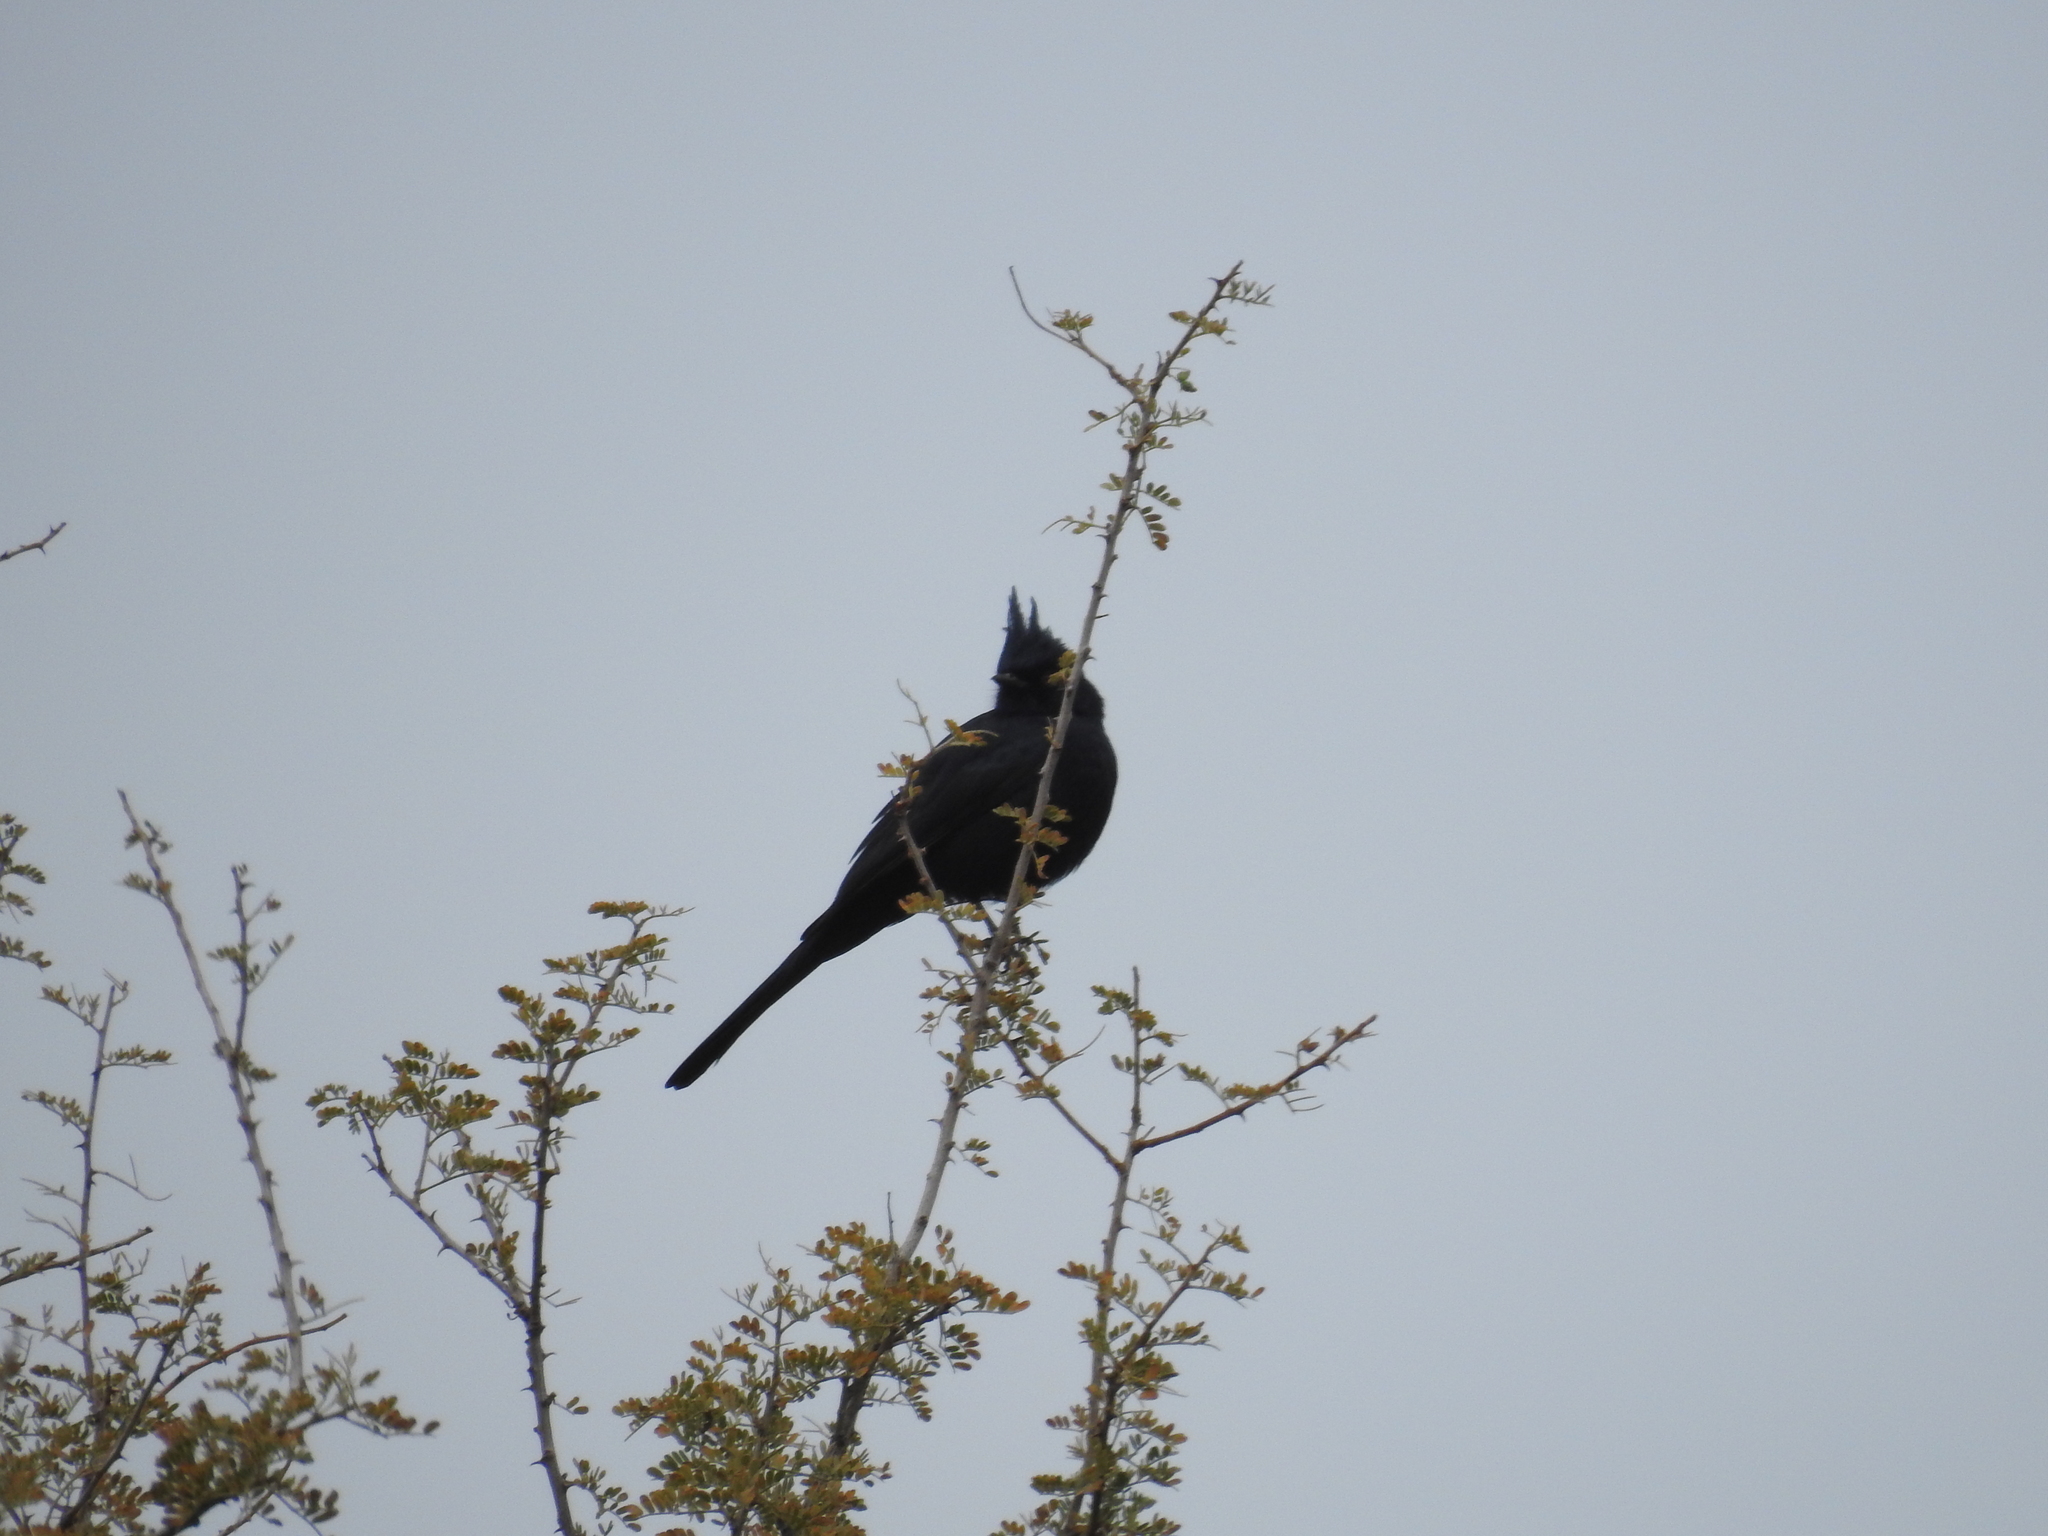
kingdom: Animalia
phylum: Chordata
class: Aves
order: Passeriformes
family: Ptilogonatidae
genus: Phainopepla
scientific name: Phainopepla nitens
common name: Phainopepla
